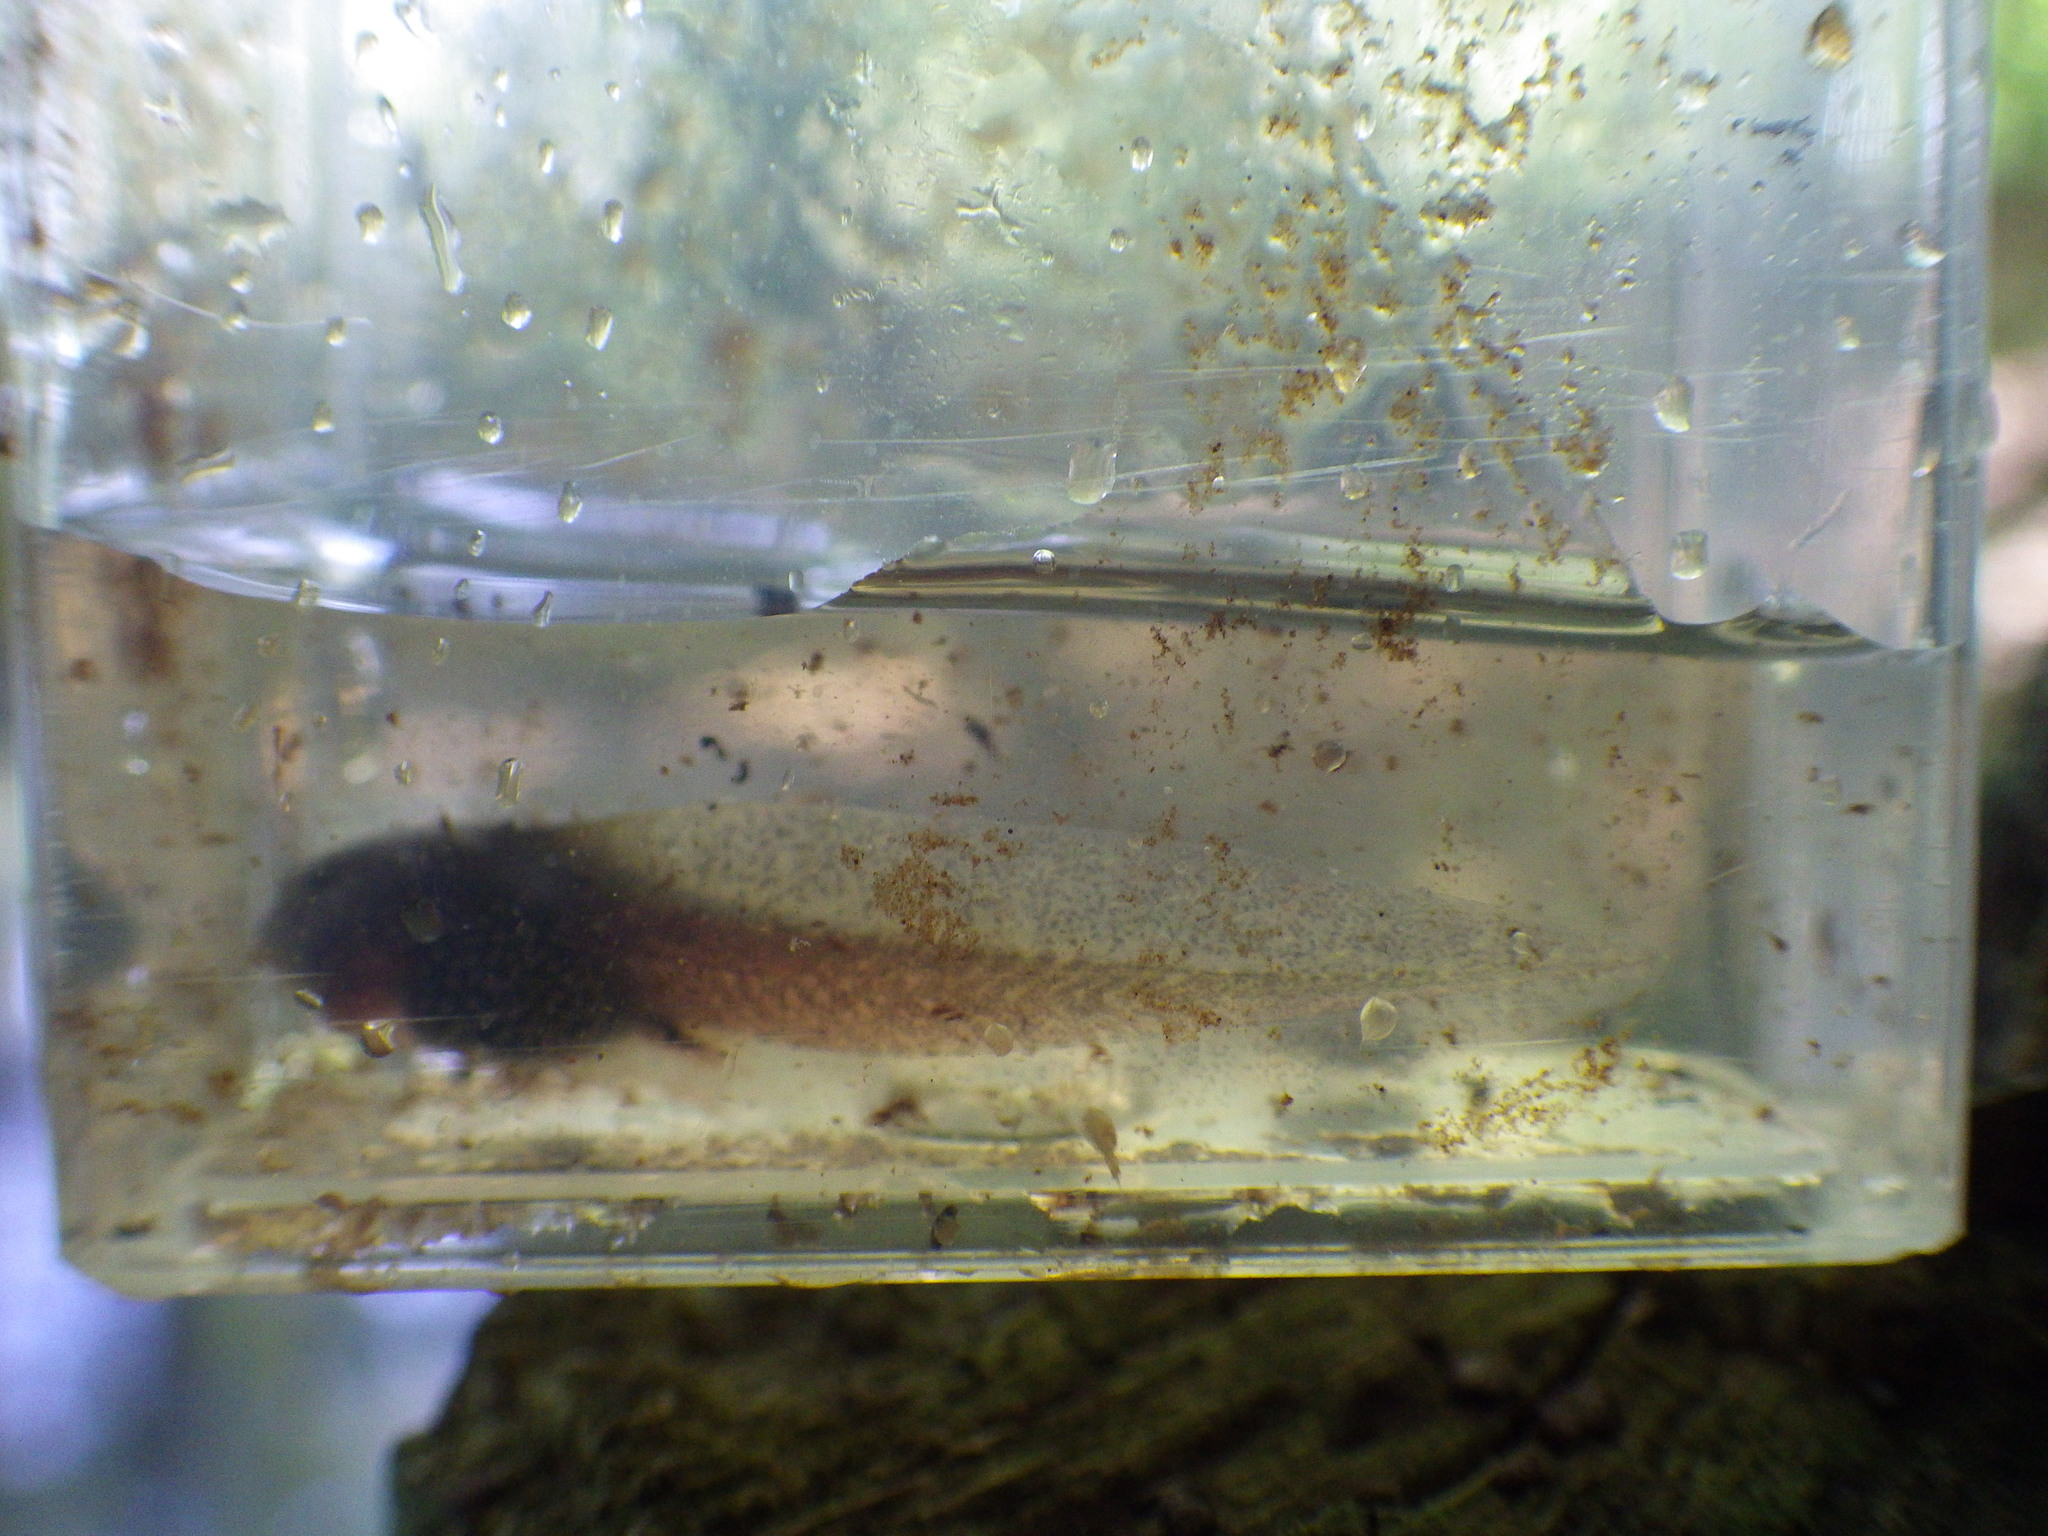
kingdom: Animalia
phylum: Chordata
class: Amphibia
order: Anura
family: Ranidae
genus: Rana
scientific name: Rana temporaria
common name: Common frog
